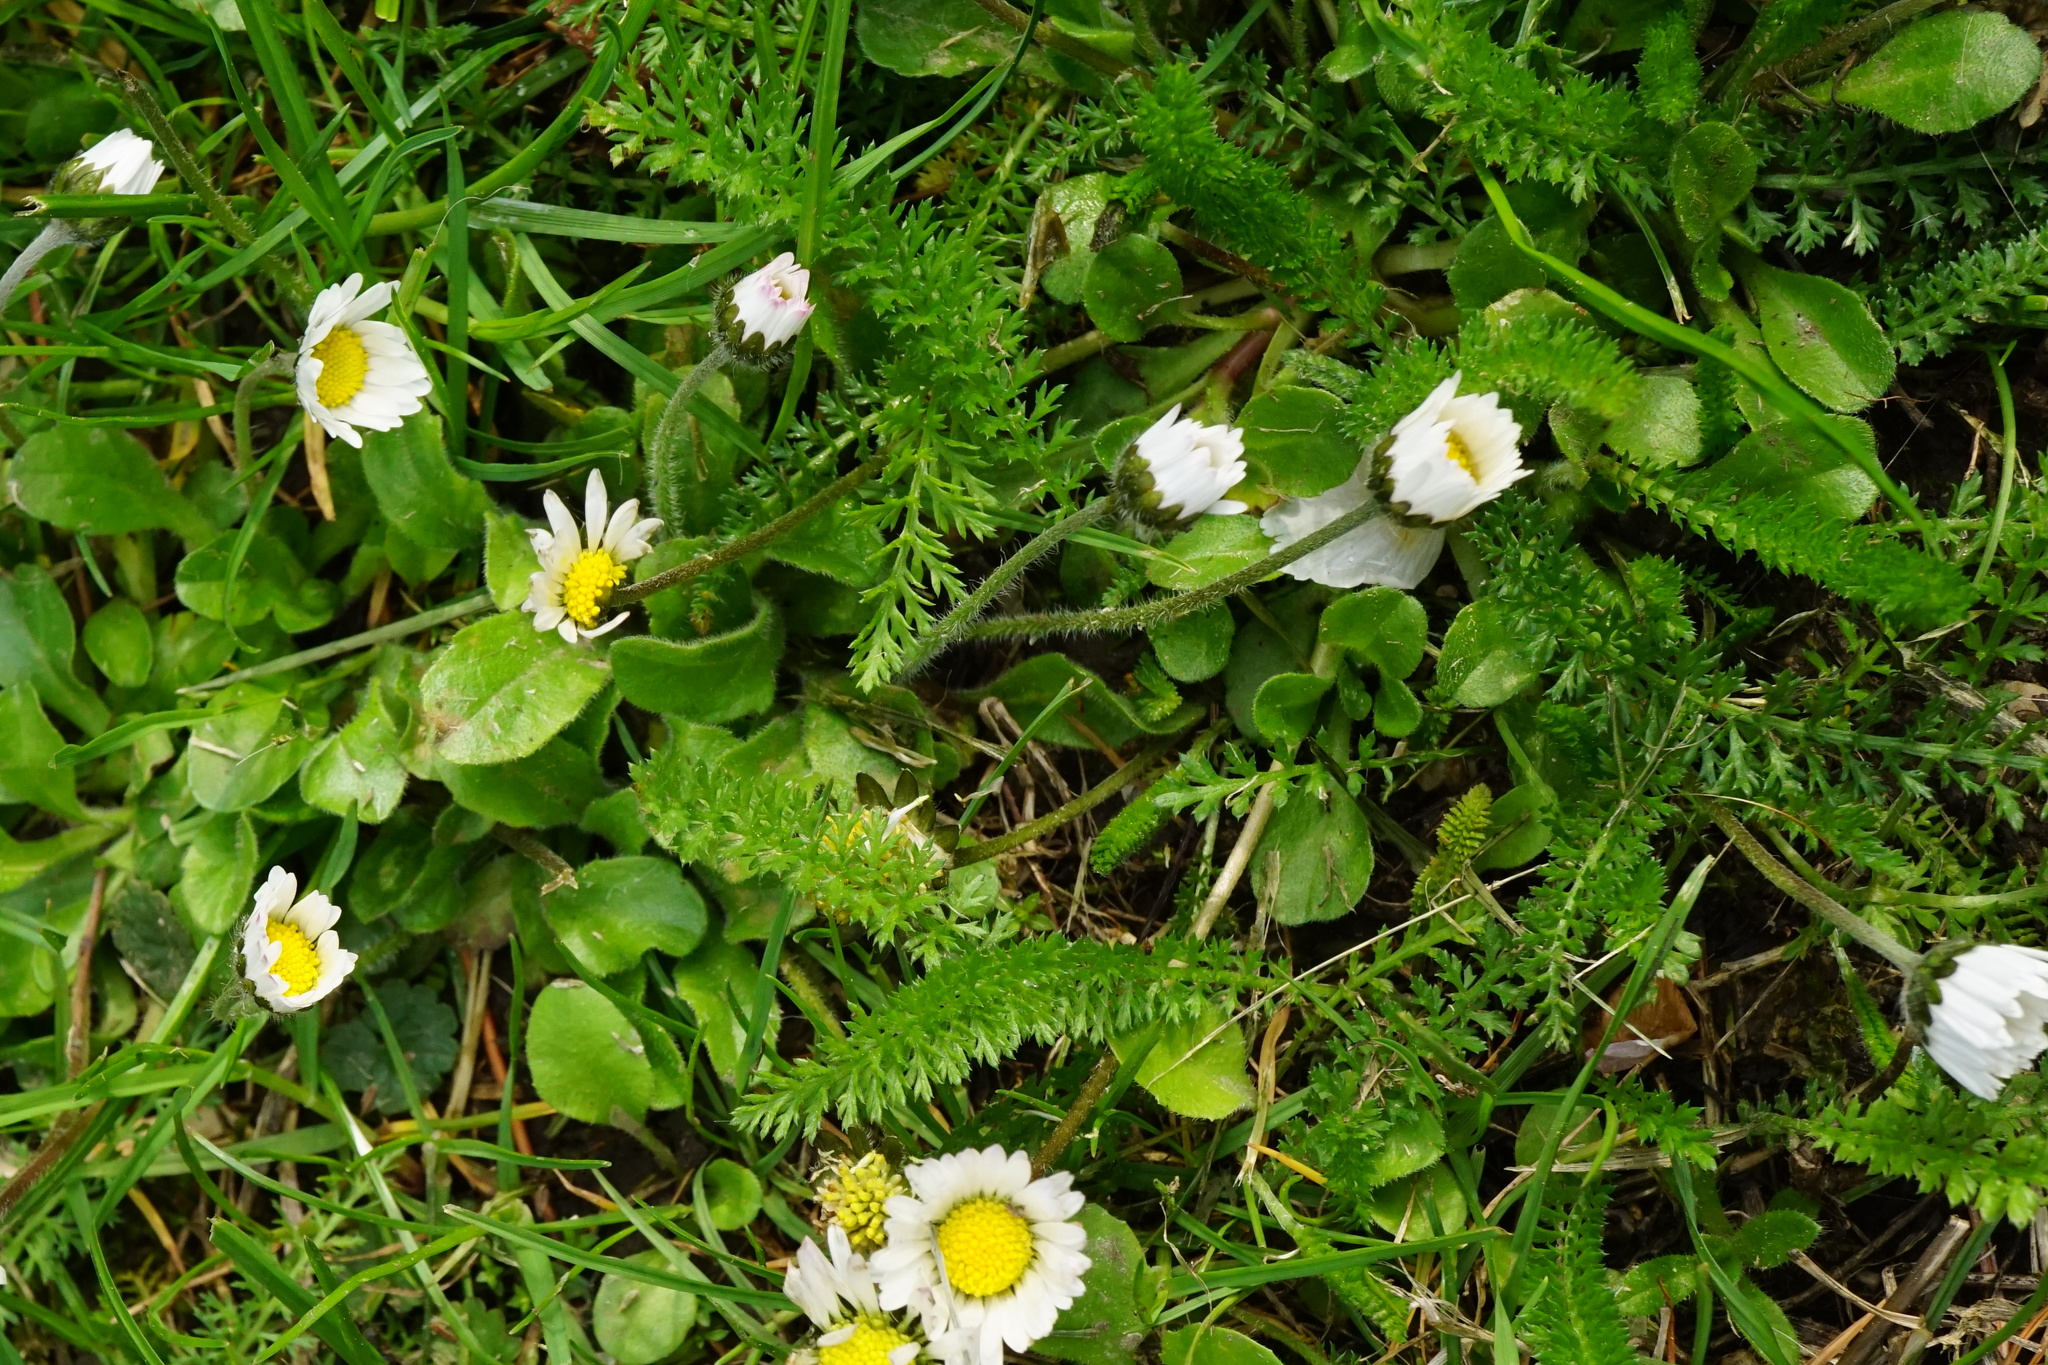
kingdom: Plantae
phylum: Tracheophyta
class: Magnoliopsida
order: Asterales
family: Asteraceae
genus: Bellis
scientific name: Bellis perennis
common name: Lawndaisy
